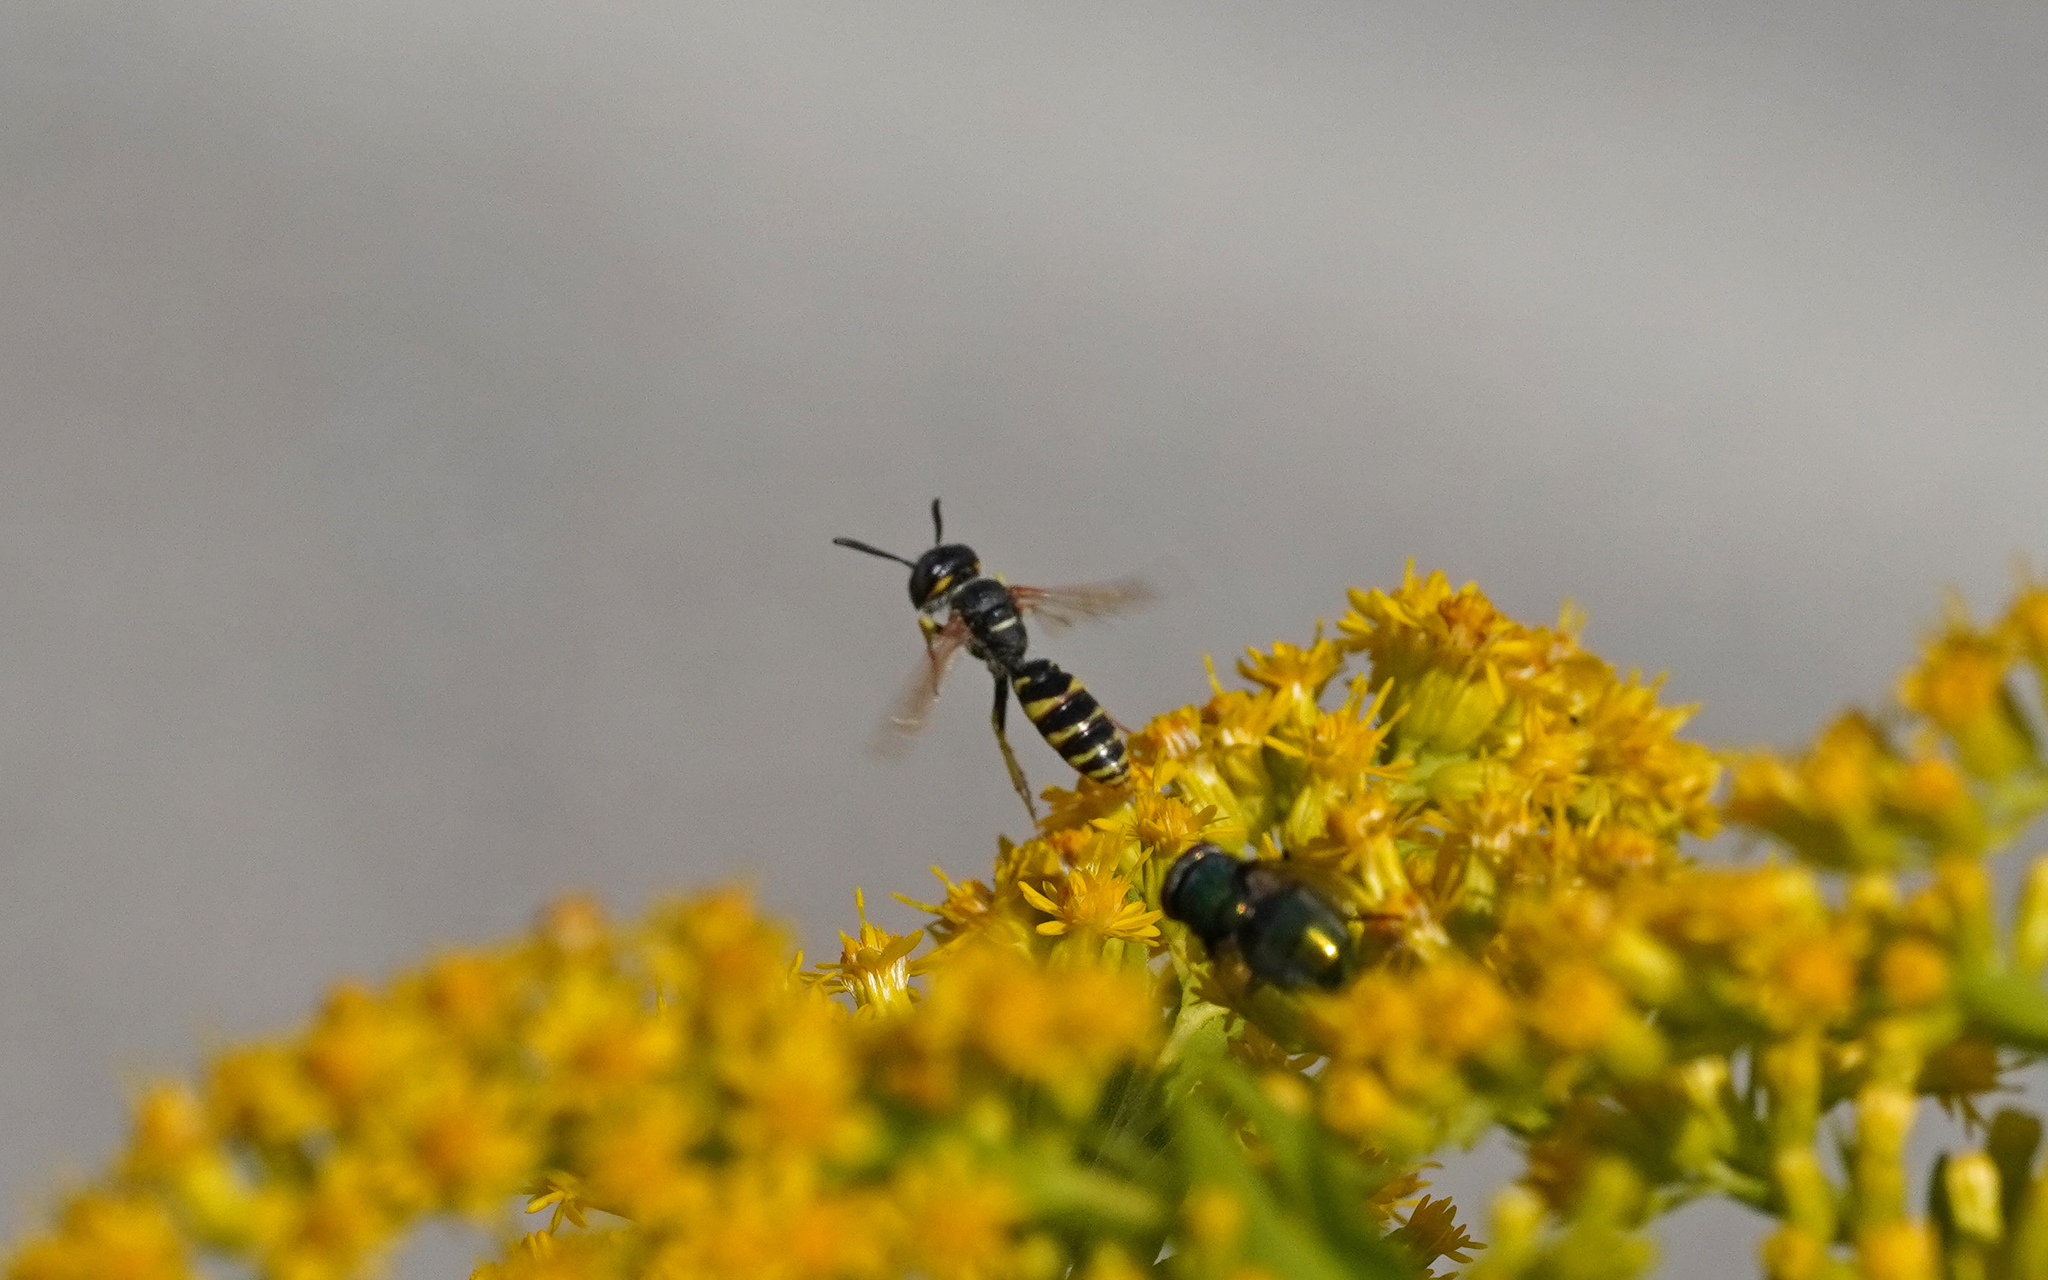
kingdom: Animalia
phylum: Arthropoda
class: Insecta
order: Hymenoptera
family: Crabronidae
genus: Philanthus
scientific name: Philanthus triangulum
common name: Bee wolf
